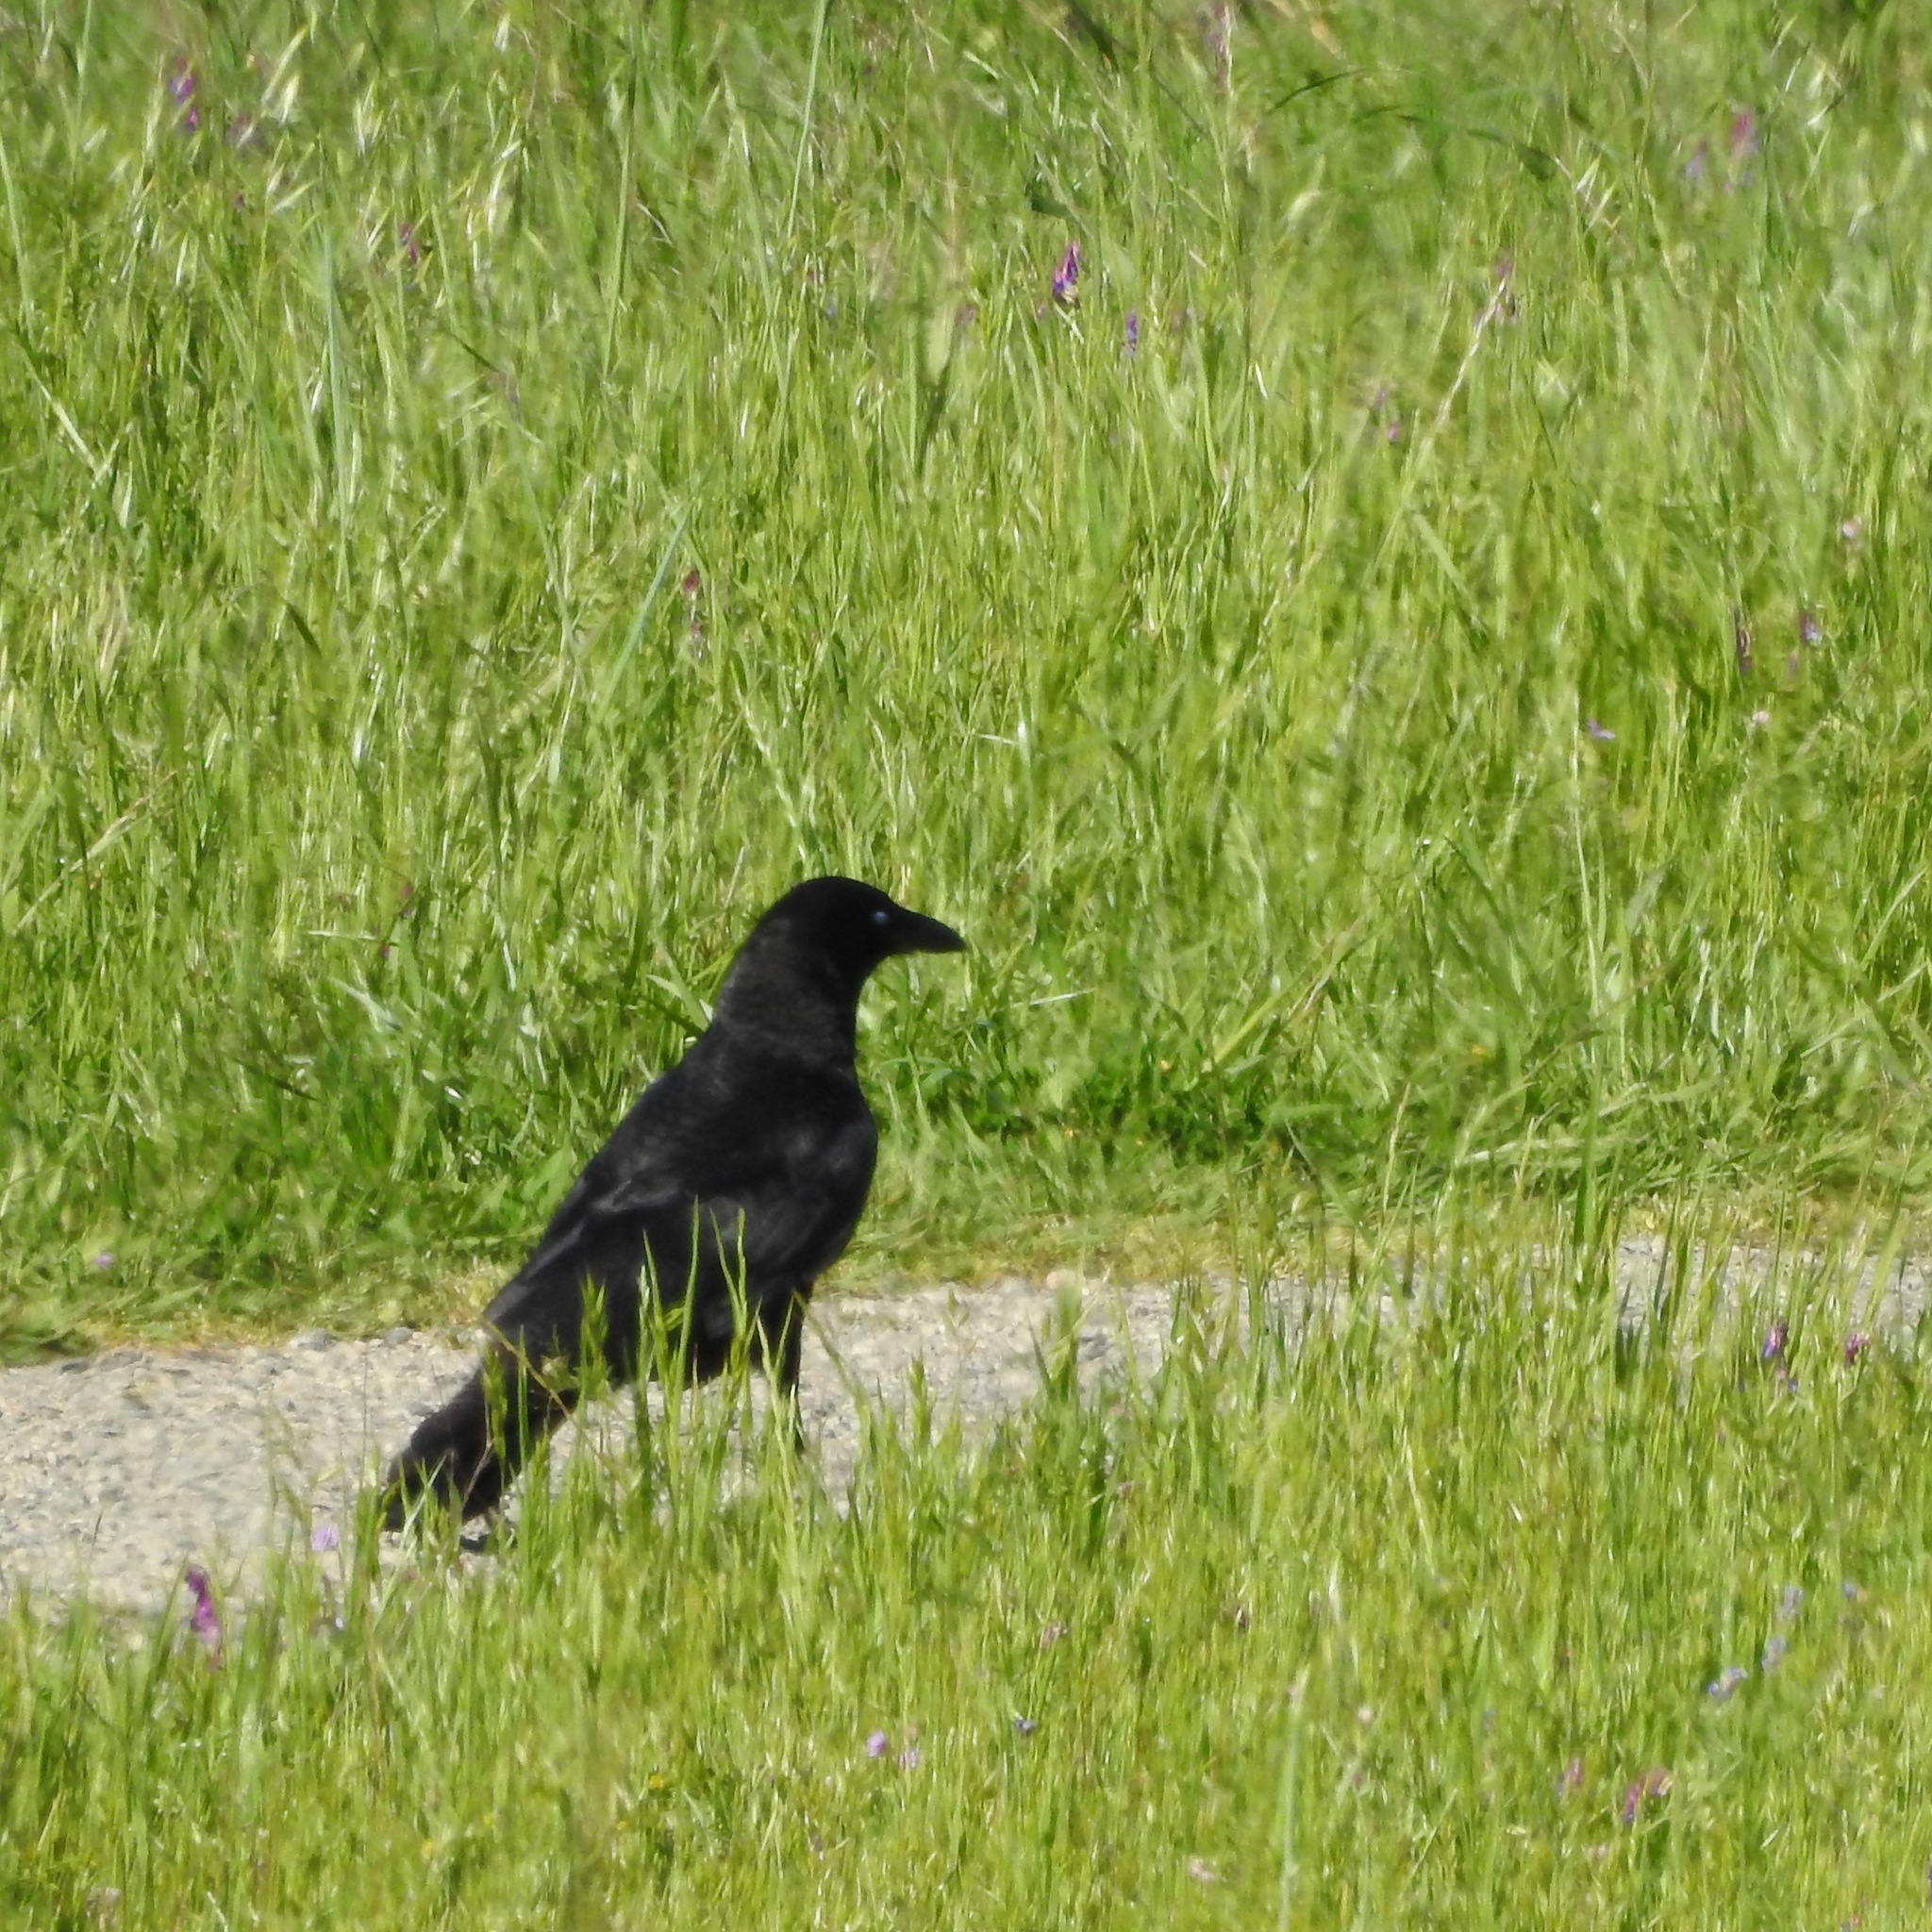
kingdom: Animalia
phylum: Chordata
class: Aves
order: Passeriformes
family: Corvidae
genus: Corvus
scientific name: Corvus brachyrhynchos
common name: American crow
